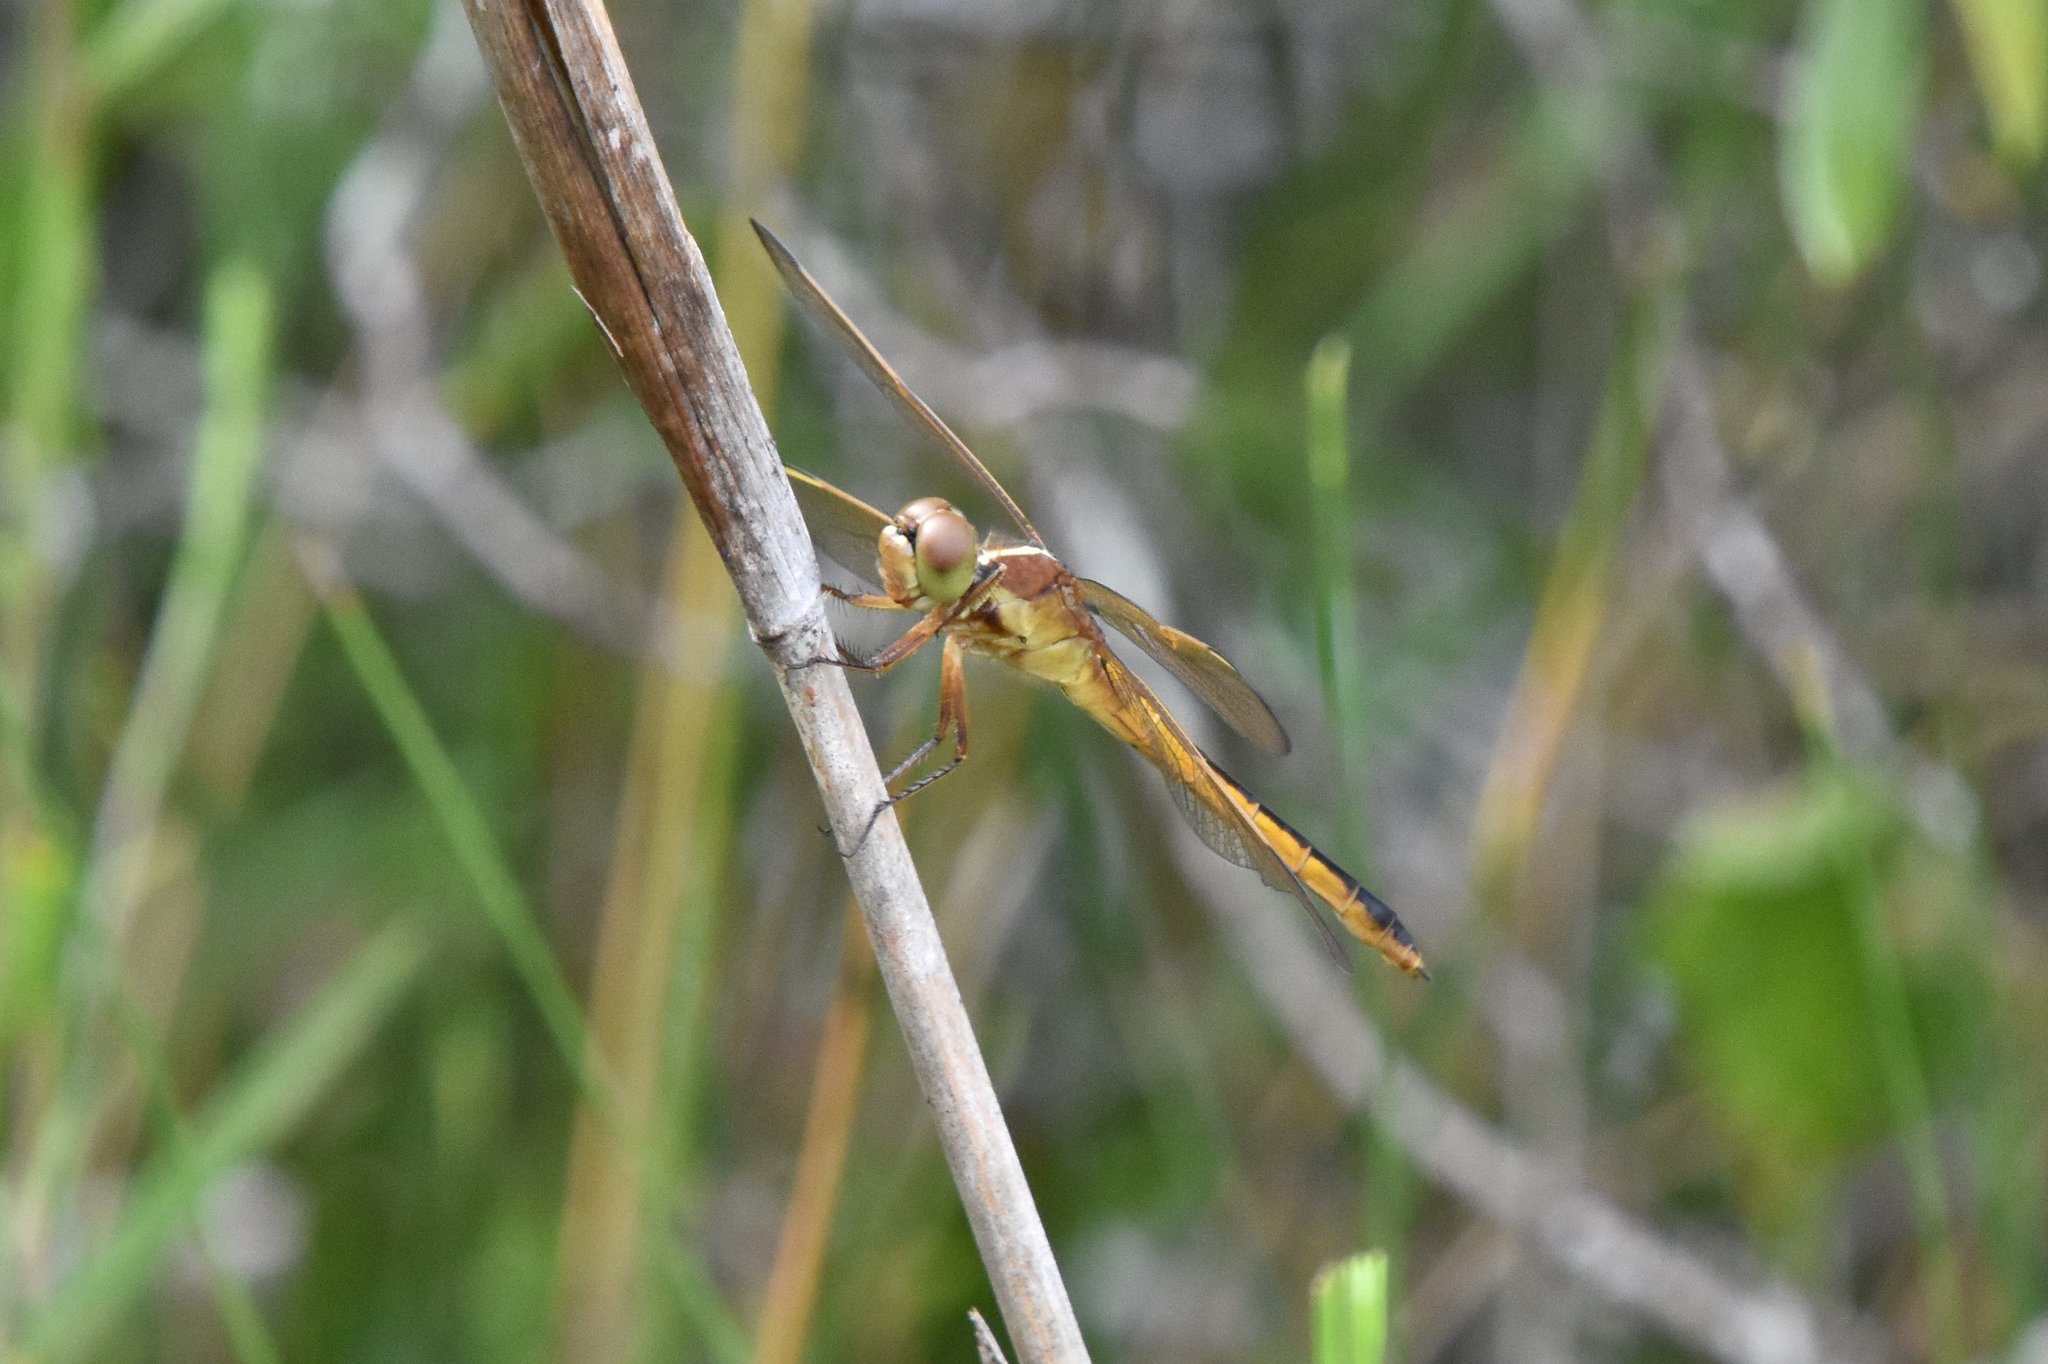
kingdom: Animalia
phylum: Arthropoda
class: Insecta
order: Odonata
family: Libellulidae
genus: Libellula
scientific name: Libellula needhami
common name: Needham's skimmer
